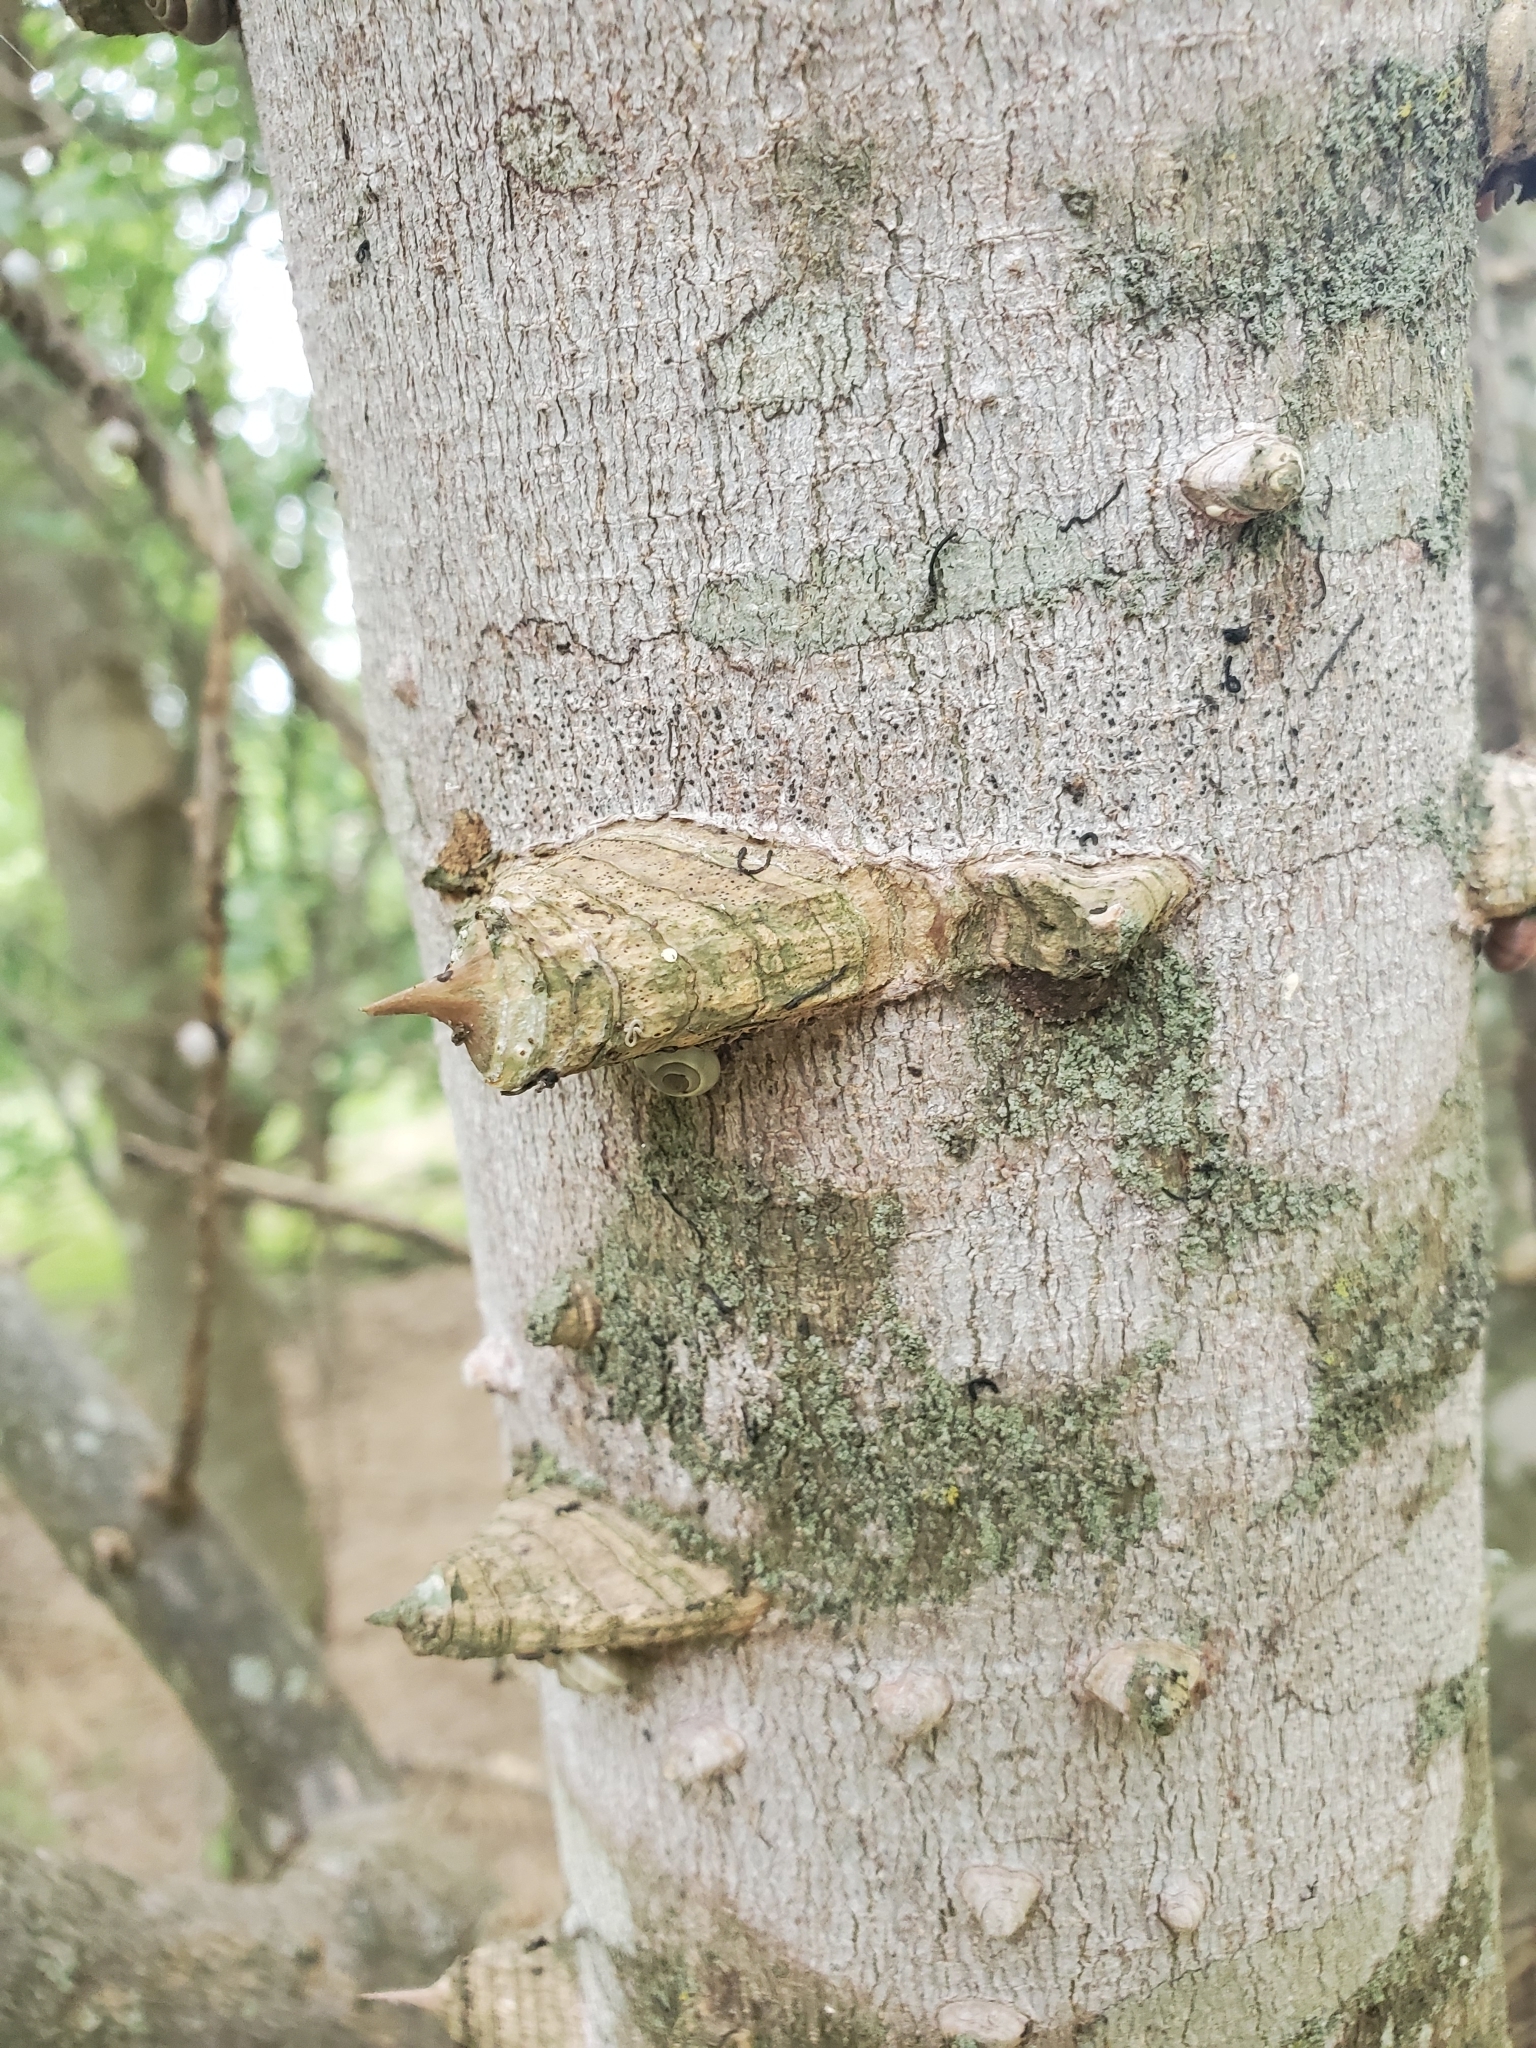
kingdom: Plantae
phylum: Tracheophyta
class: Magnoliopsida
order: Sapindales
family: Rutaceae
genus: Zanthoxylum
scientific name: Zanthoxylum clava-herculis
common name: Hercules'-club
